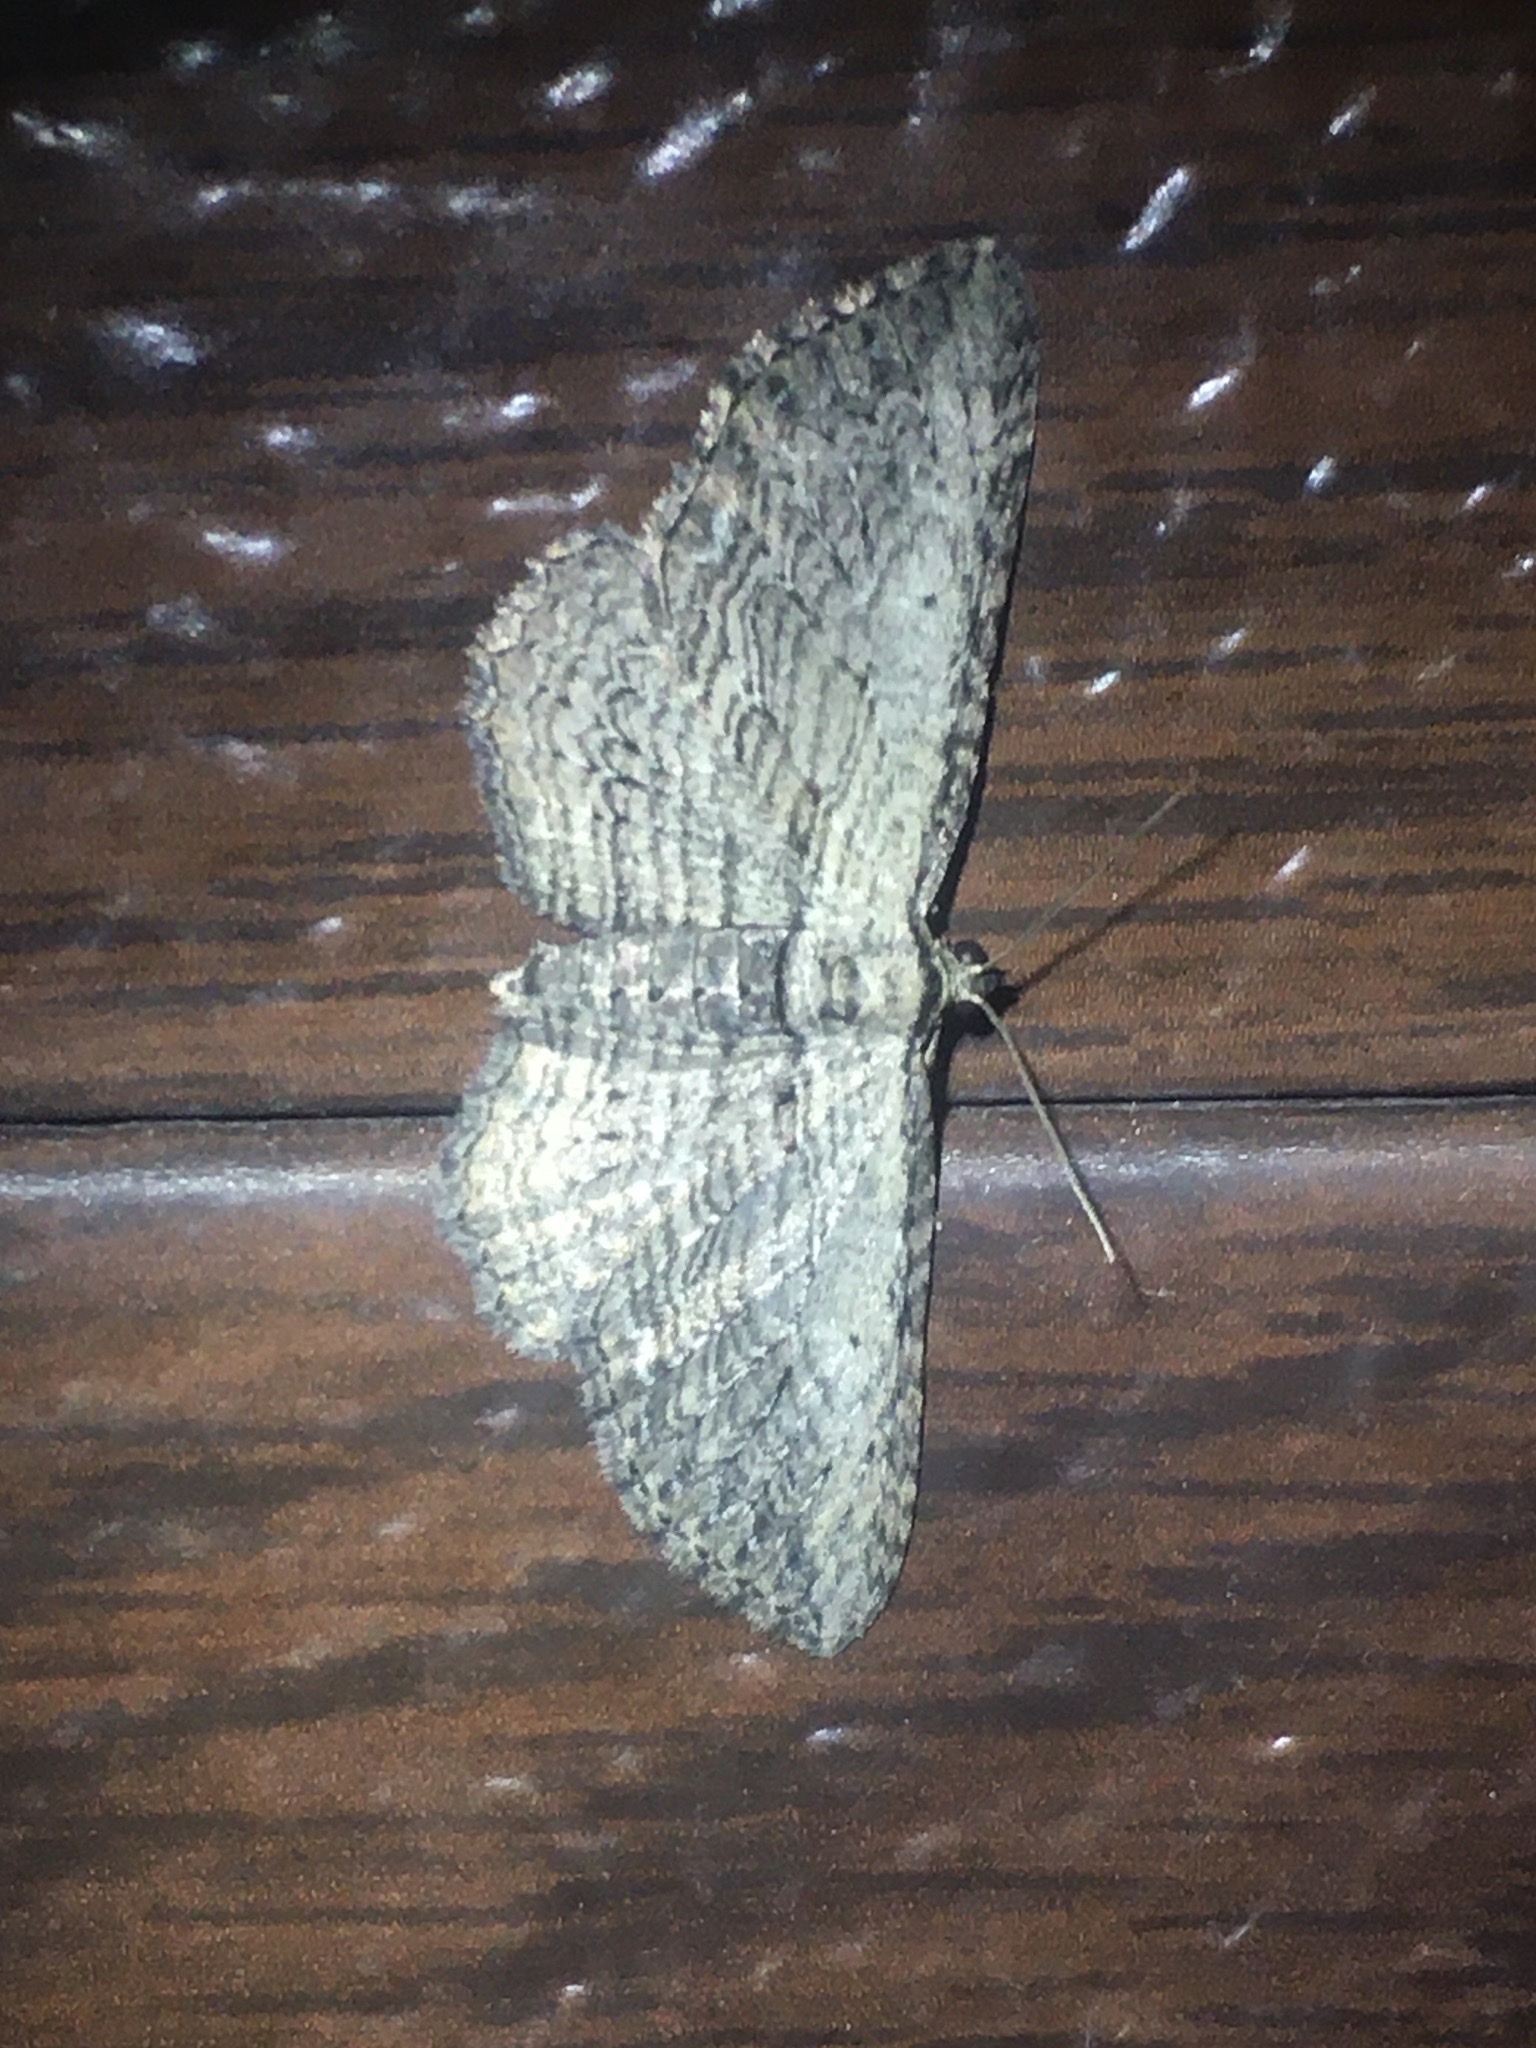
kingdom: Animalia
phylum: Arthropoda
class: Insecta
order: Lepidoptera
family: Geometridae
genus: Horisme
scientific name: Horisme intestinata
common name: Brown bark carpet
